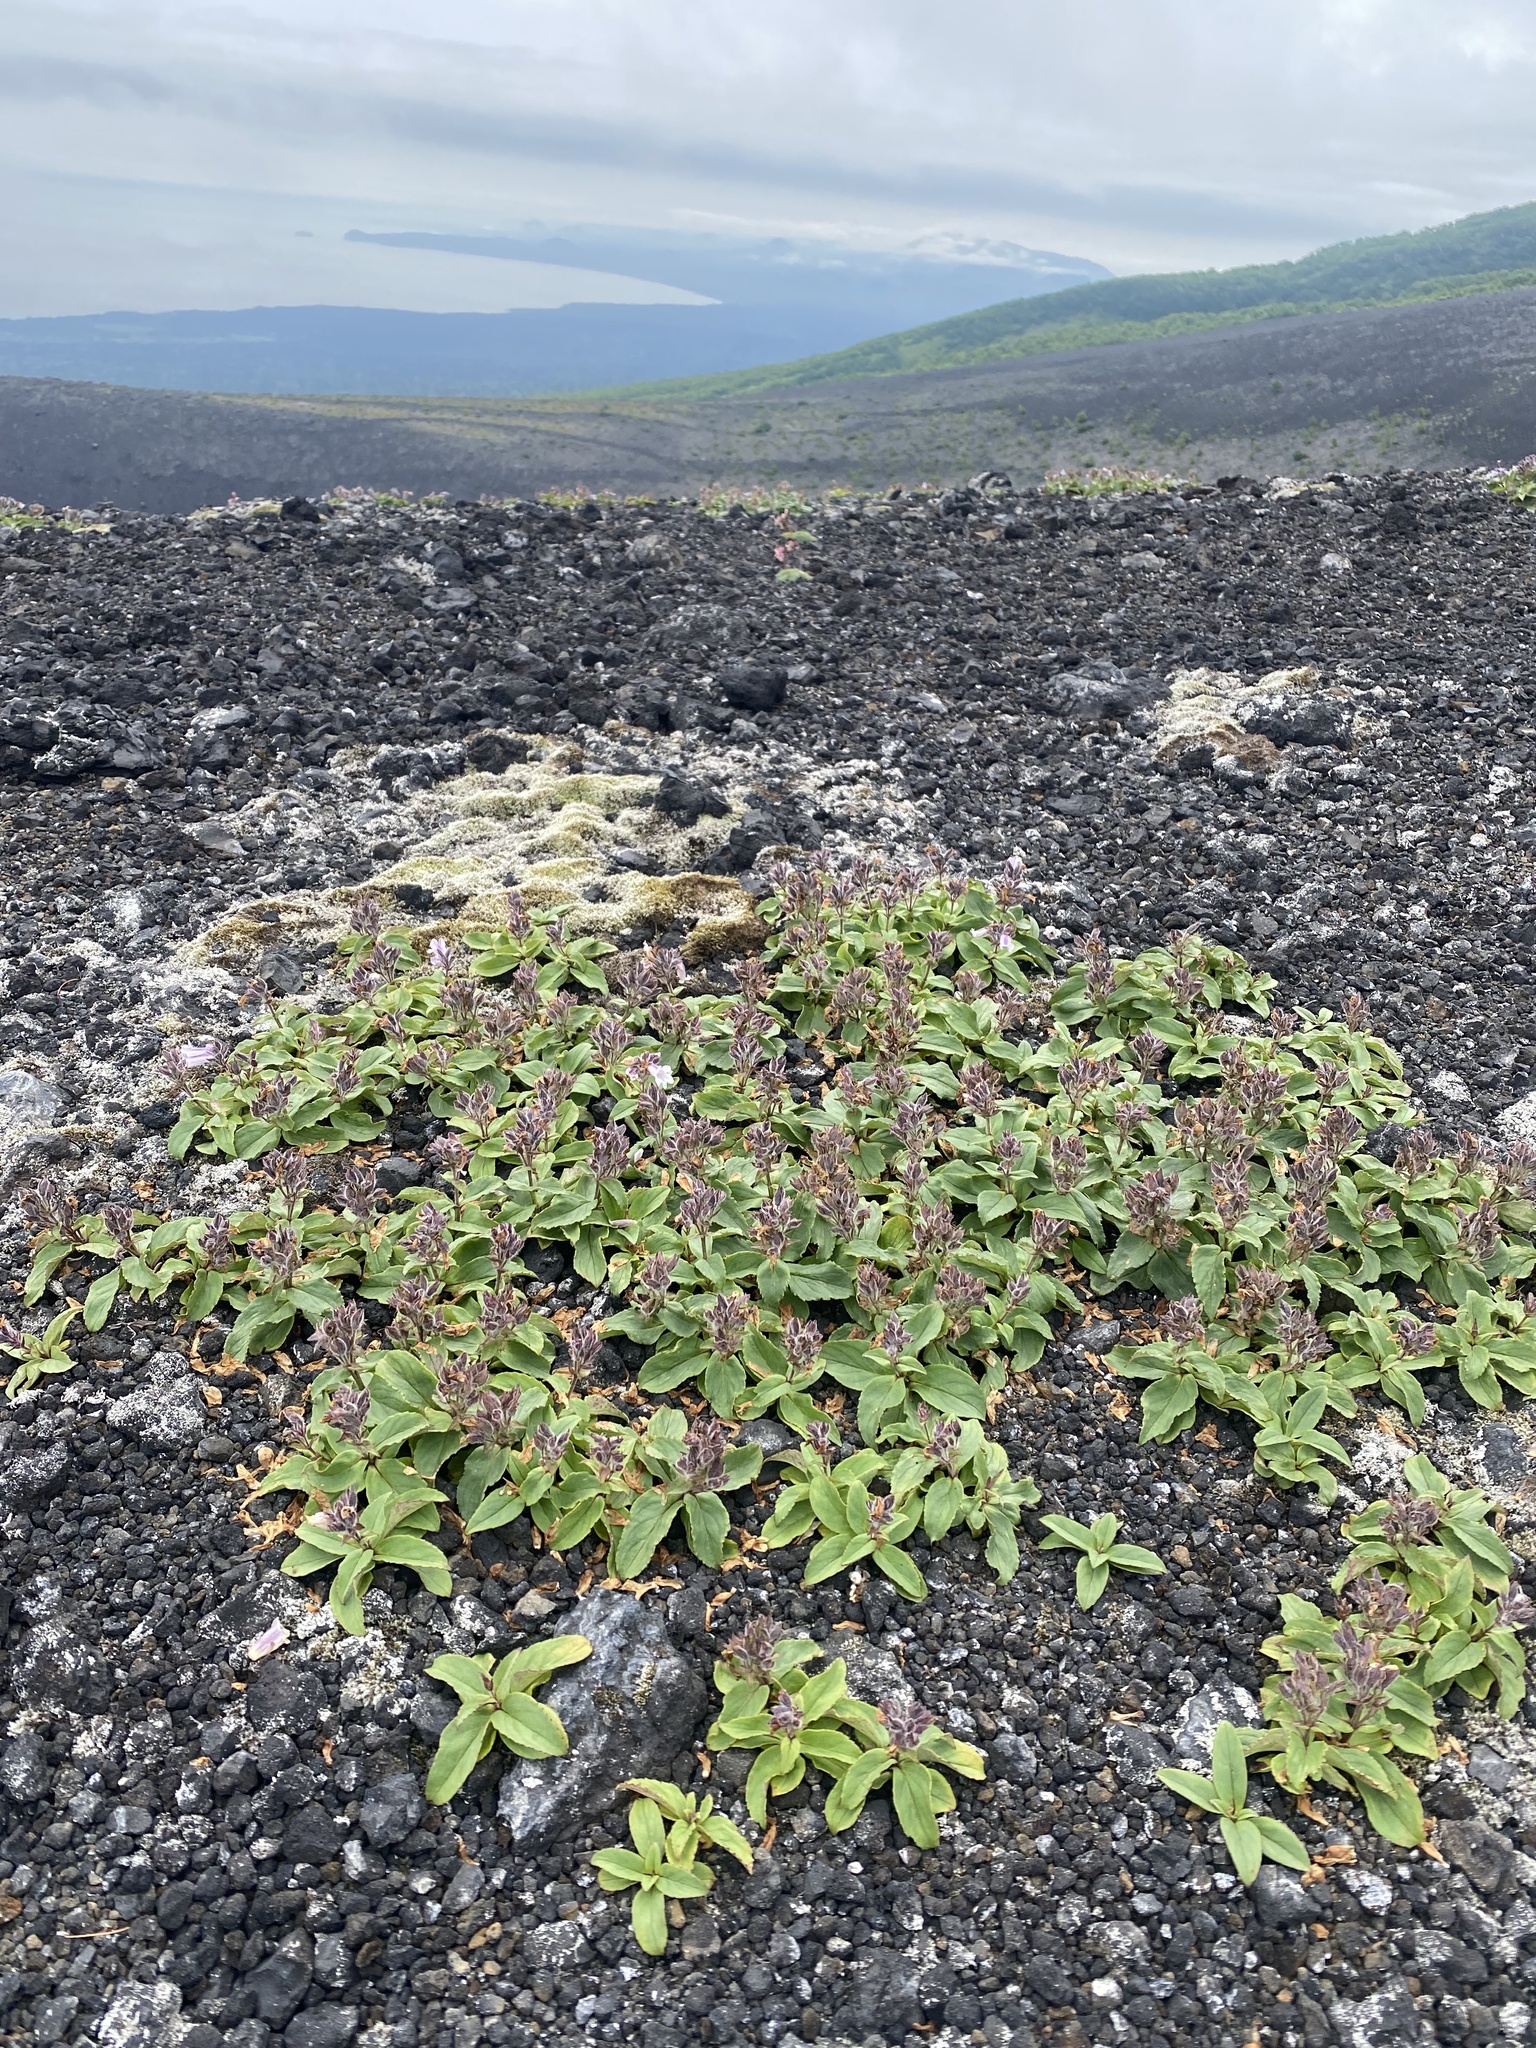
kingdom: Plantae
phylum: Tracheophyta
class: Magnoliopsida
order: Lamiales
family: Plantaginaceae
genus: Pennellianthus
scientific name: Pennellianthus frutescens
